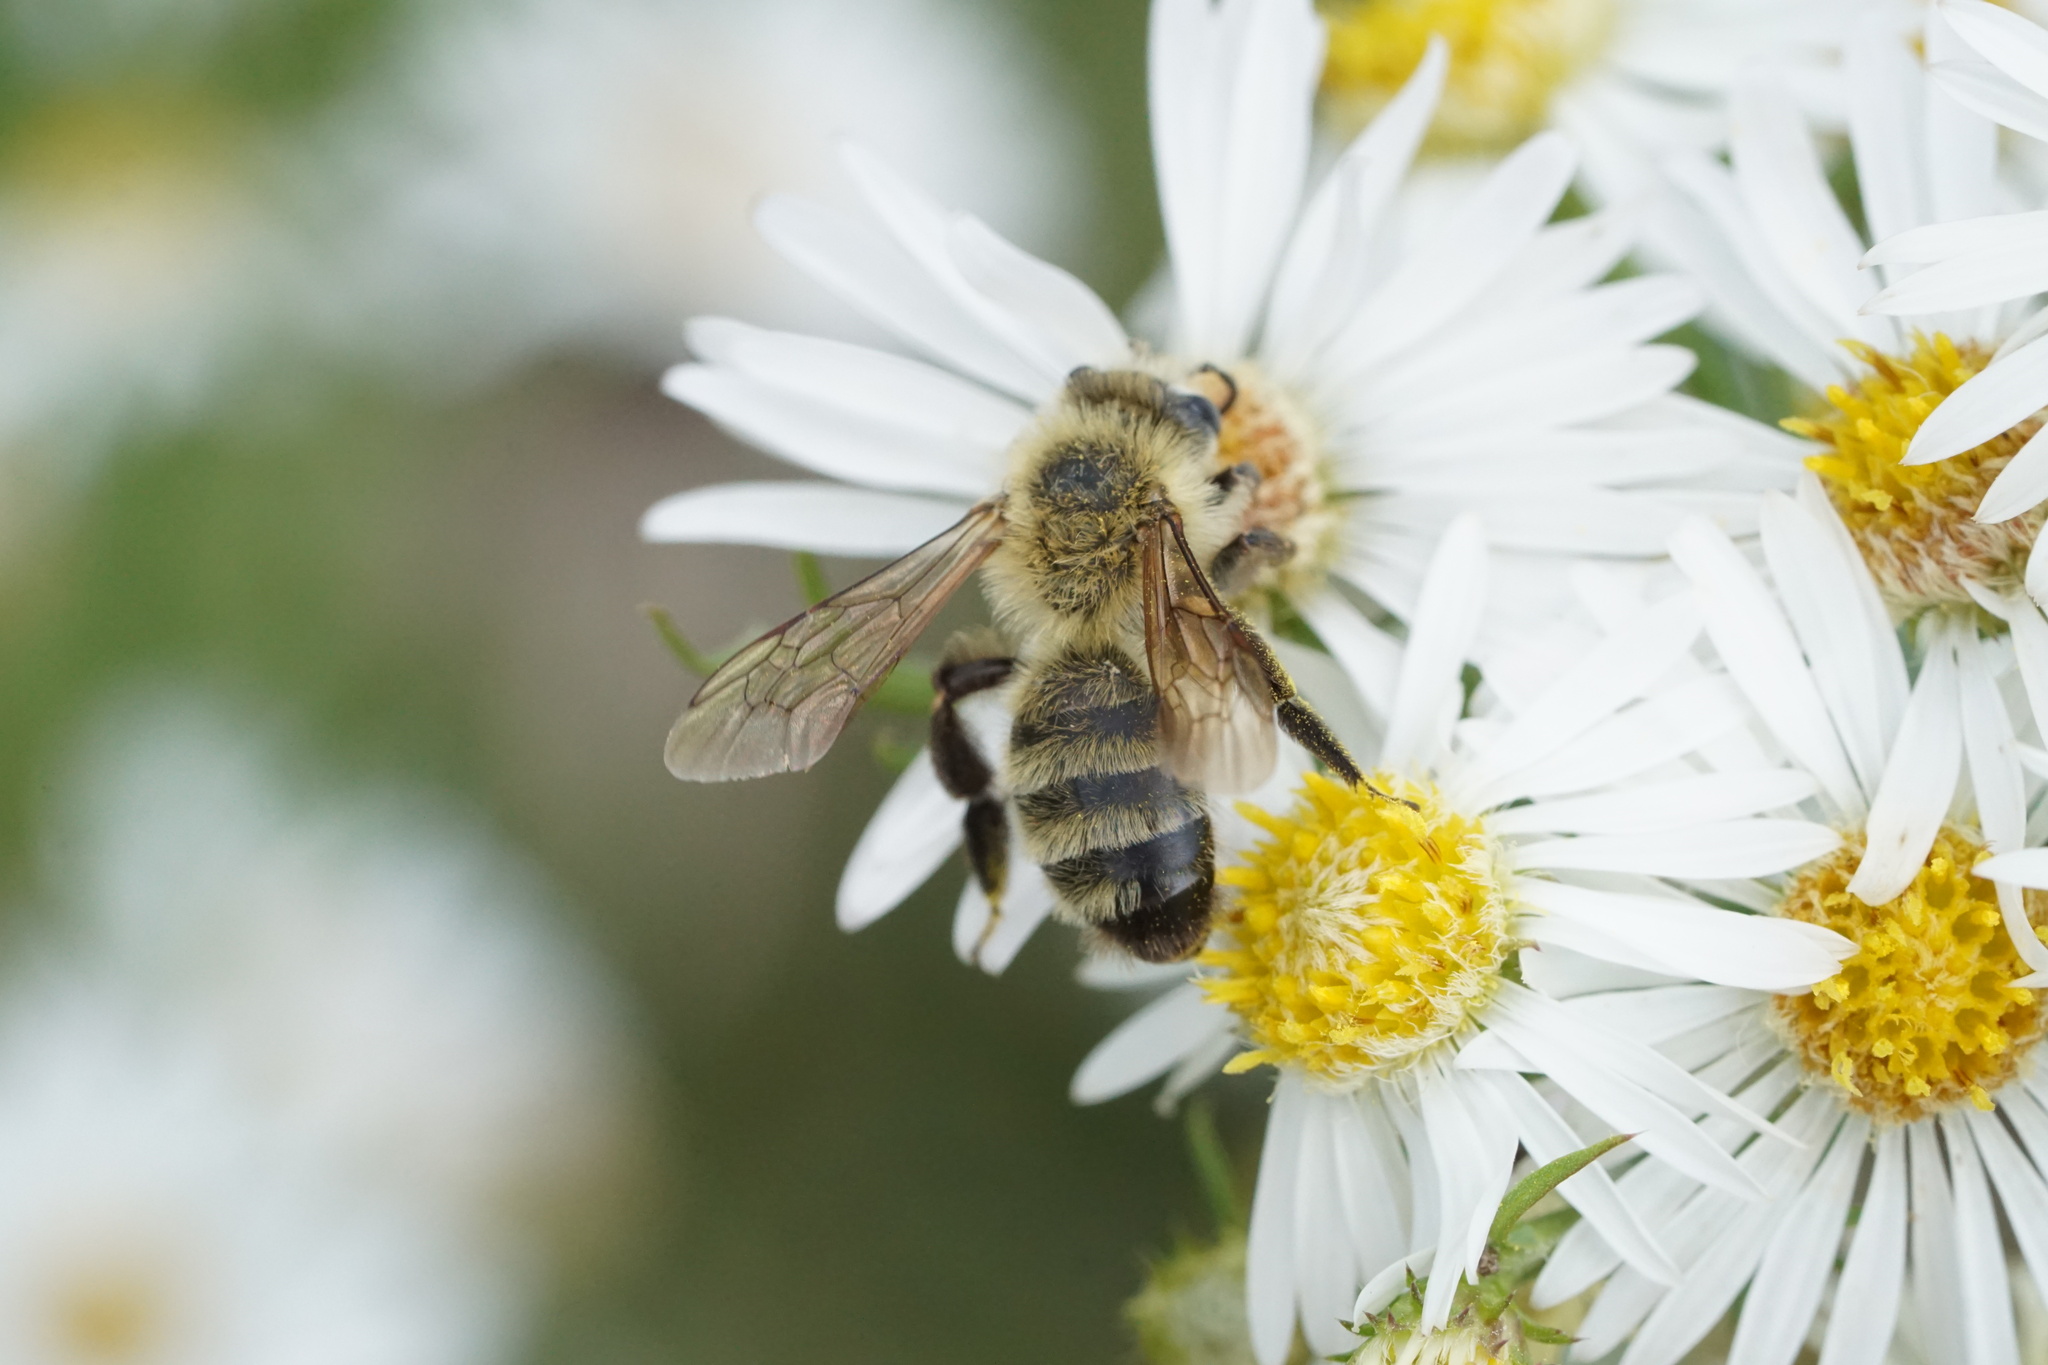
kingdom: Animalia
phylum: Arthropoda
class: Insecta
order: Hymenoptera
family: Andrenidae
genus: Andrena
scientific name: Andrena hirticincta
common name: Hairy-banded mining bee
